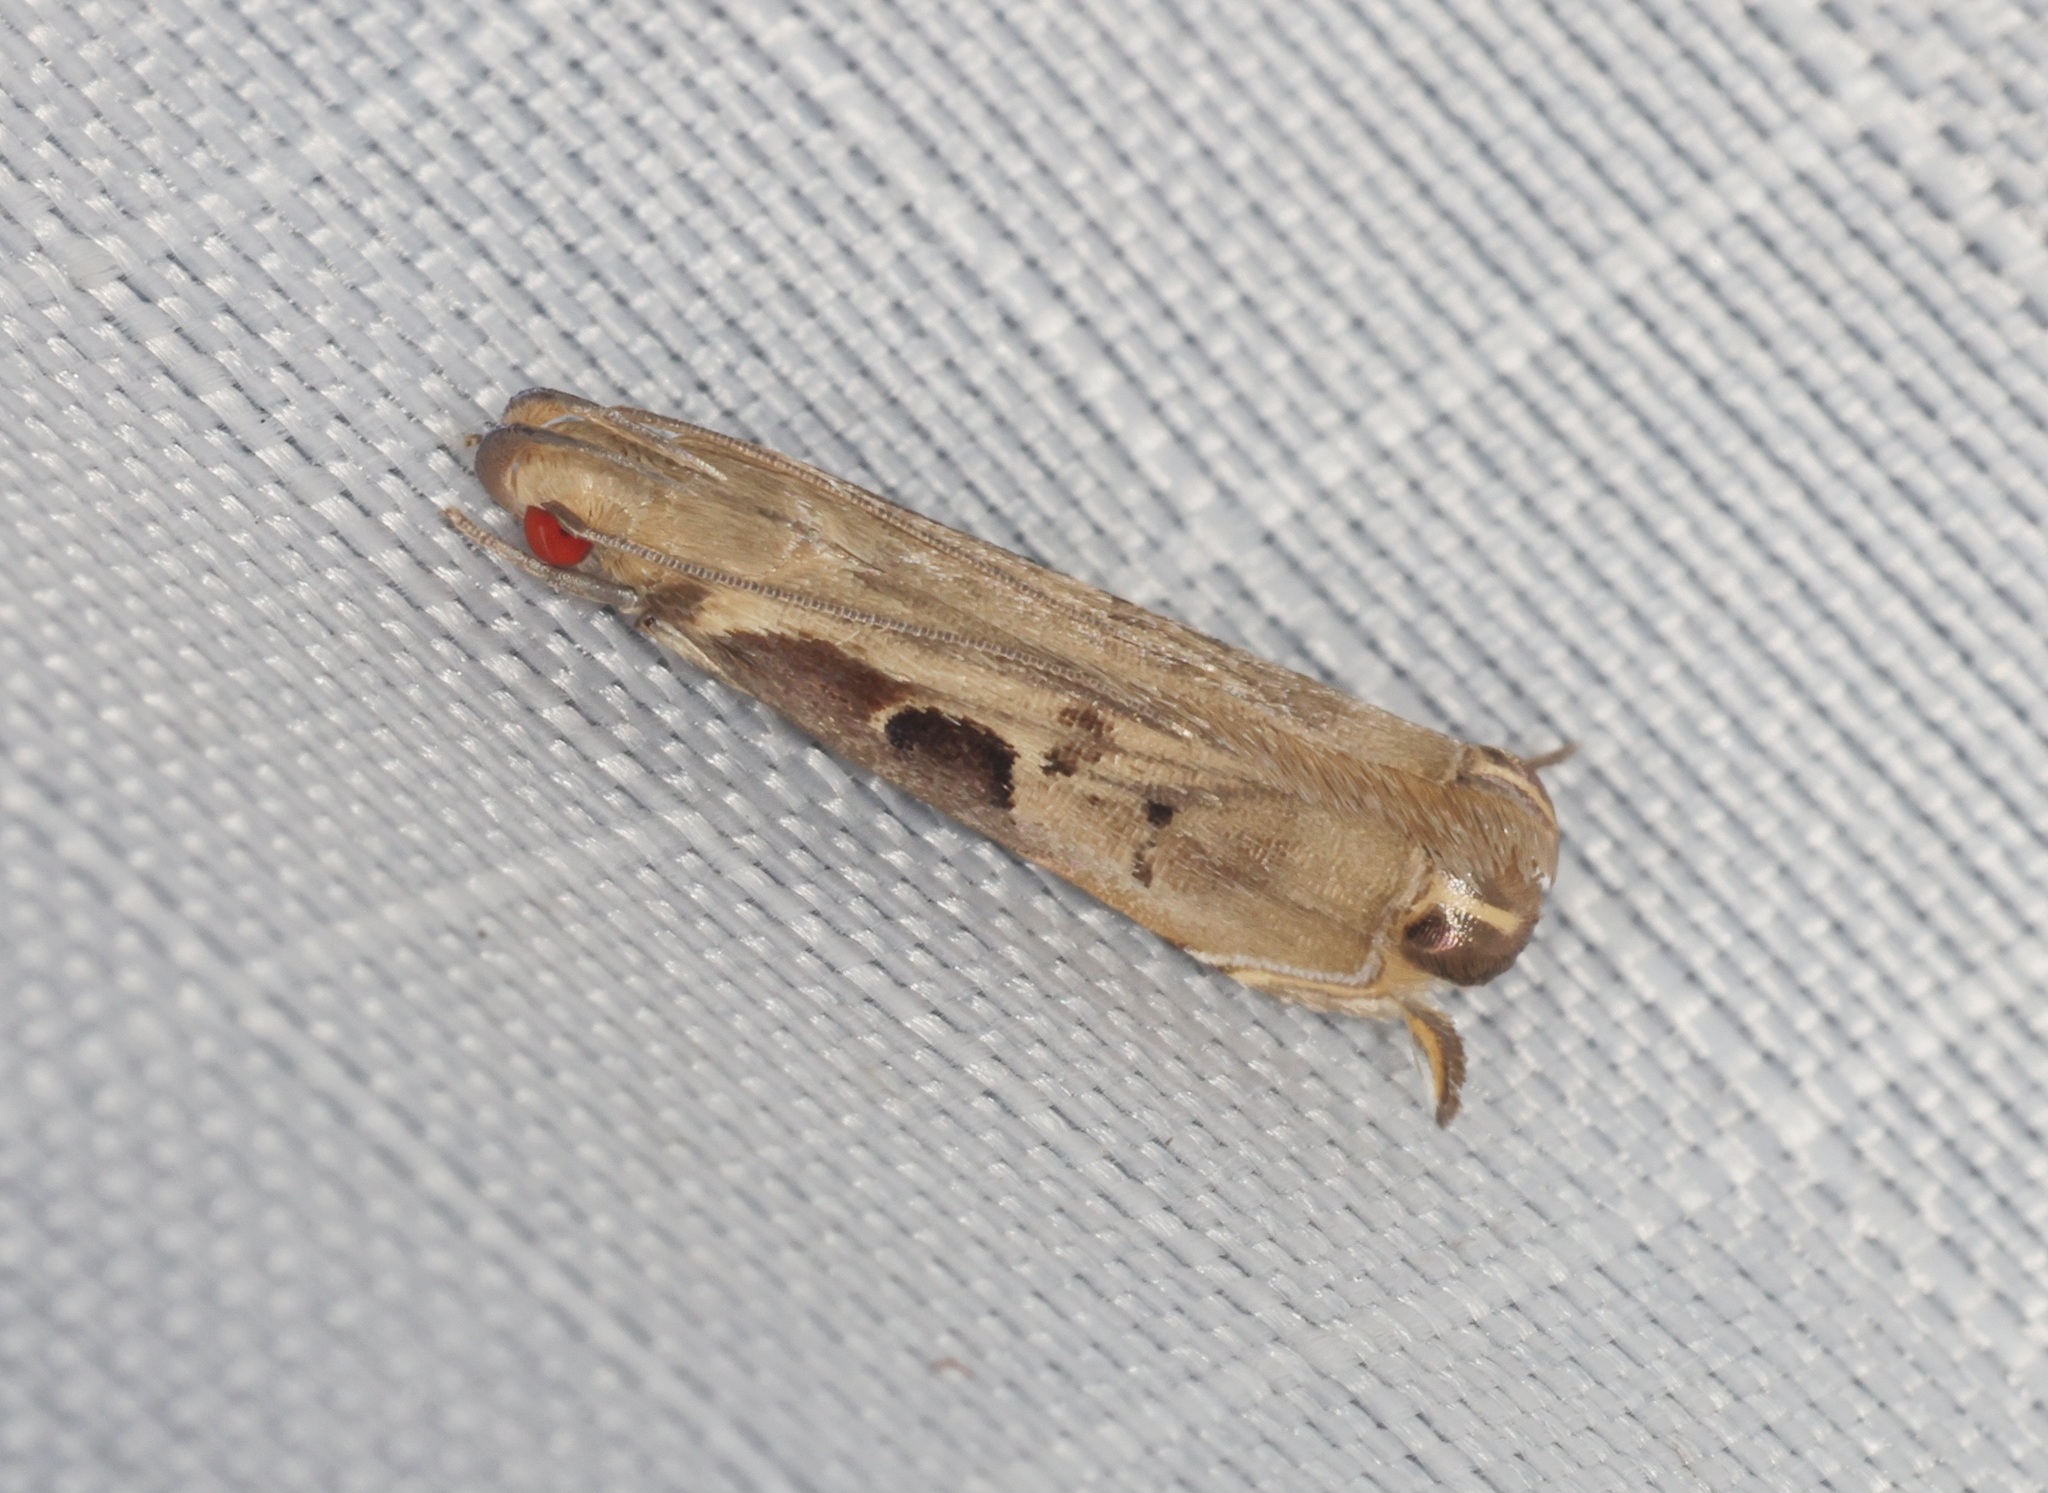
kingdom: Animalia
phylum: Arthropoda
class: Insecta
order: Lepidoptera
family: Gelechiidae
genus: Idiophantis
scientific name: Idiophantis
